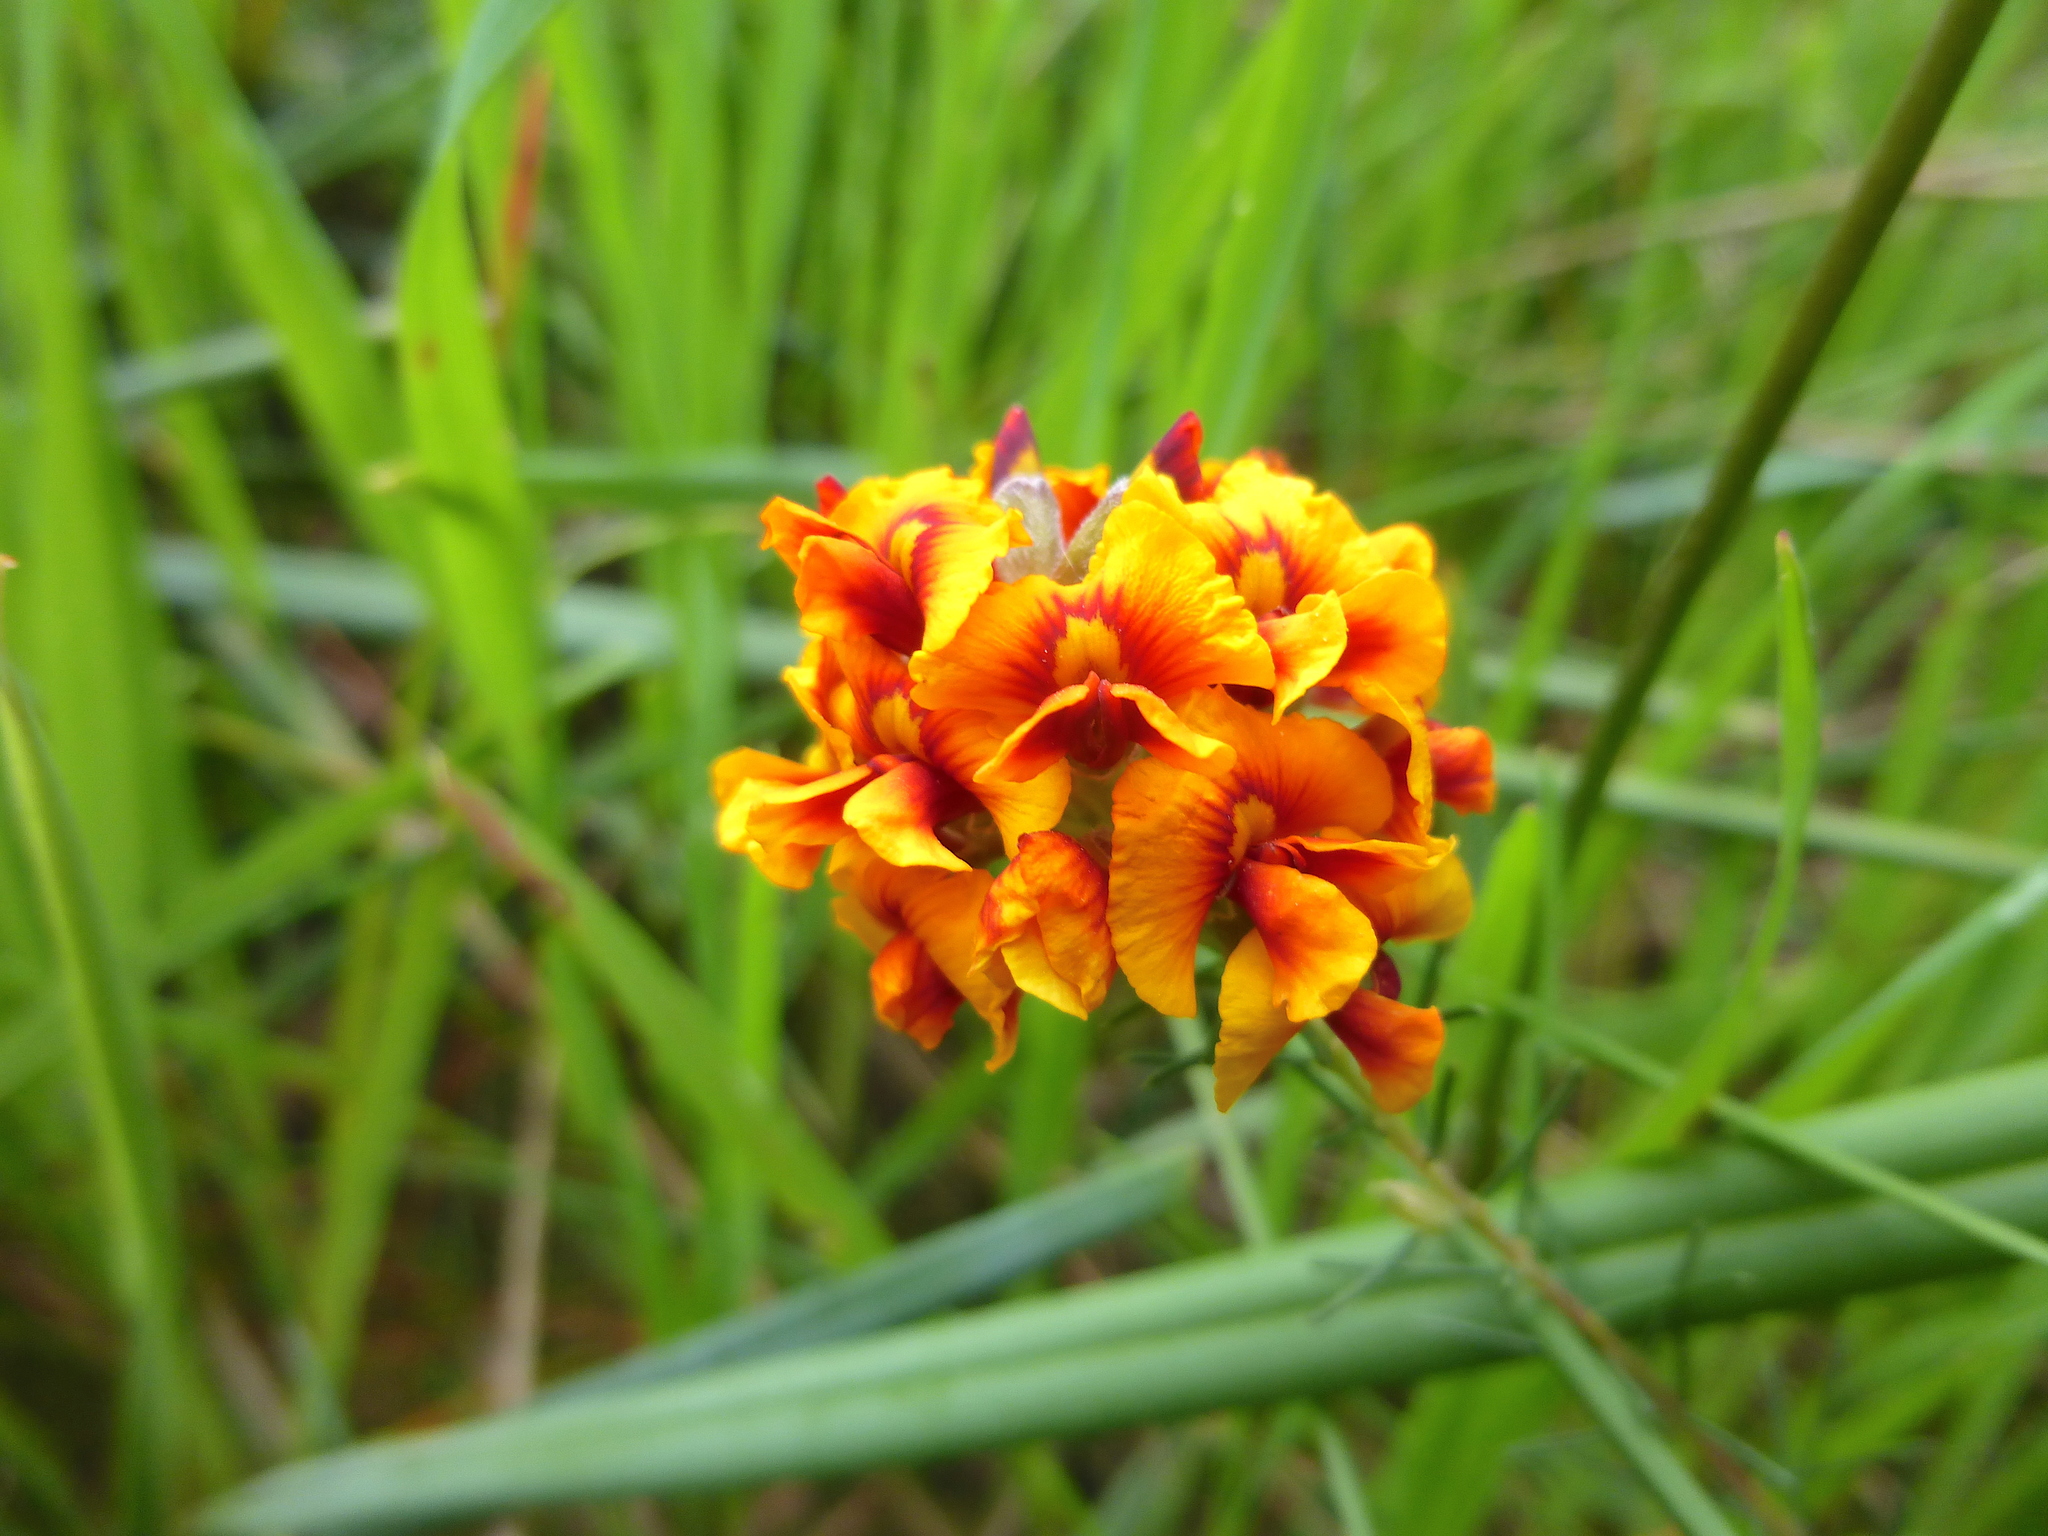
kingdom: Plantae
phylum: Tracheophyta
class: Magnoliopsida
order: Fabales
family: Fabaceae
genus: Dillwynia
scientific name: Dillwynia cinerascens
